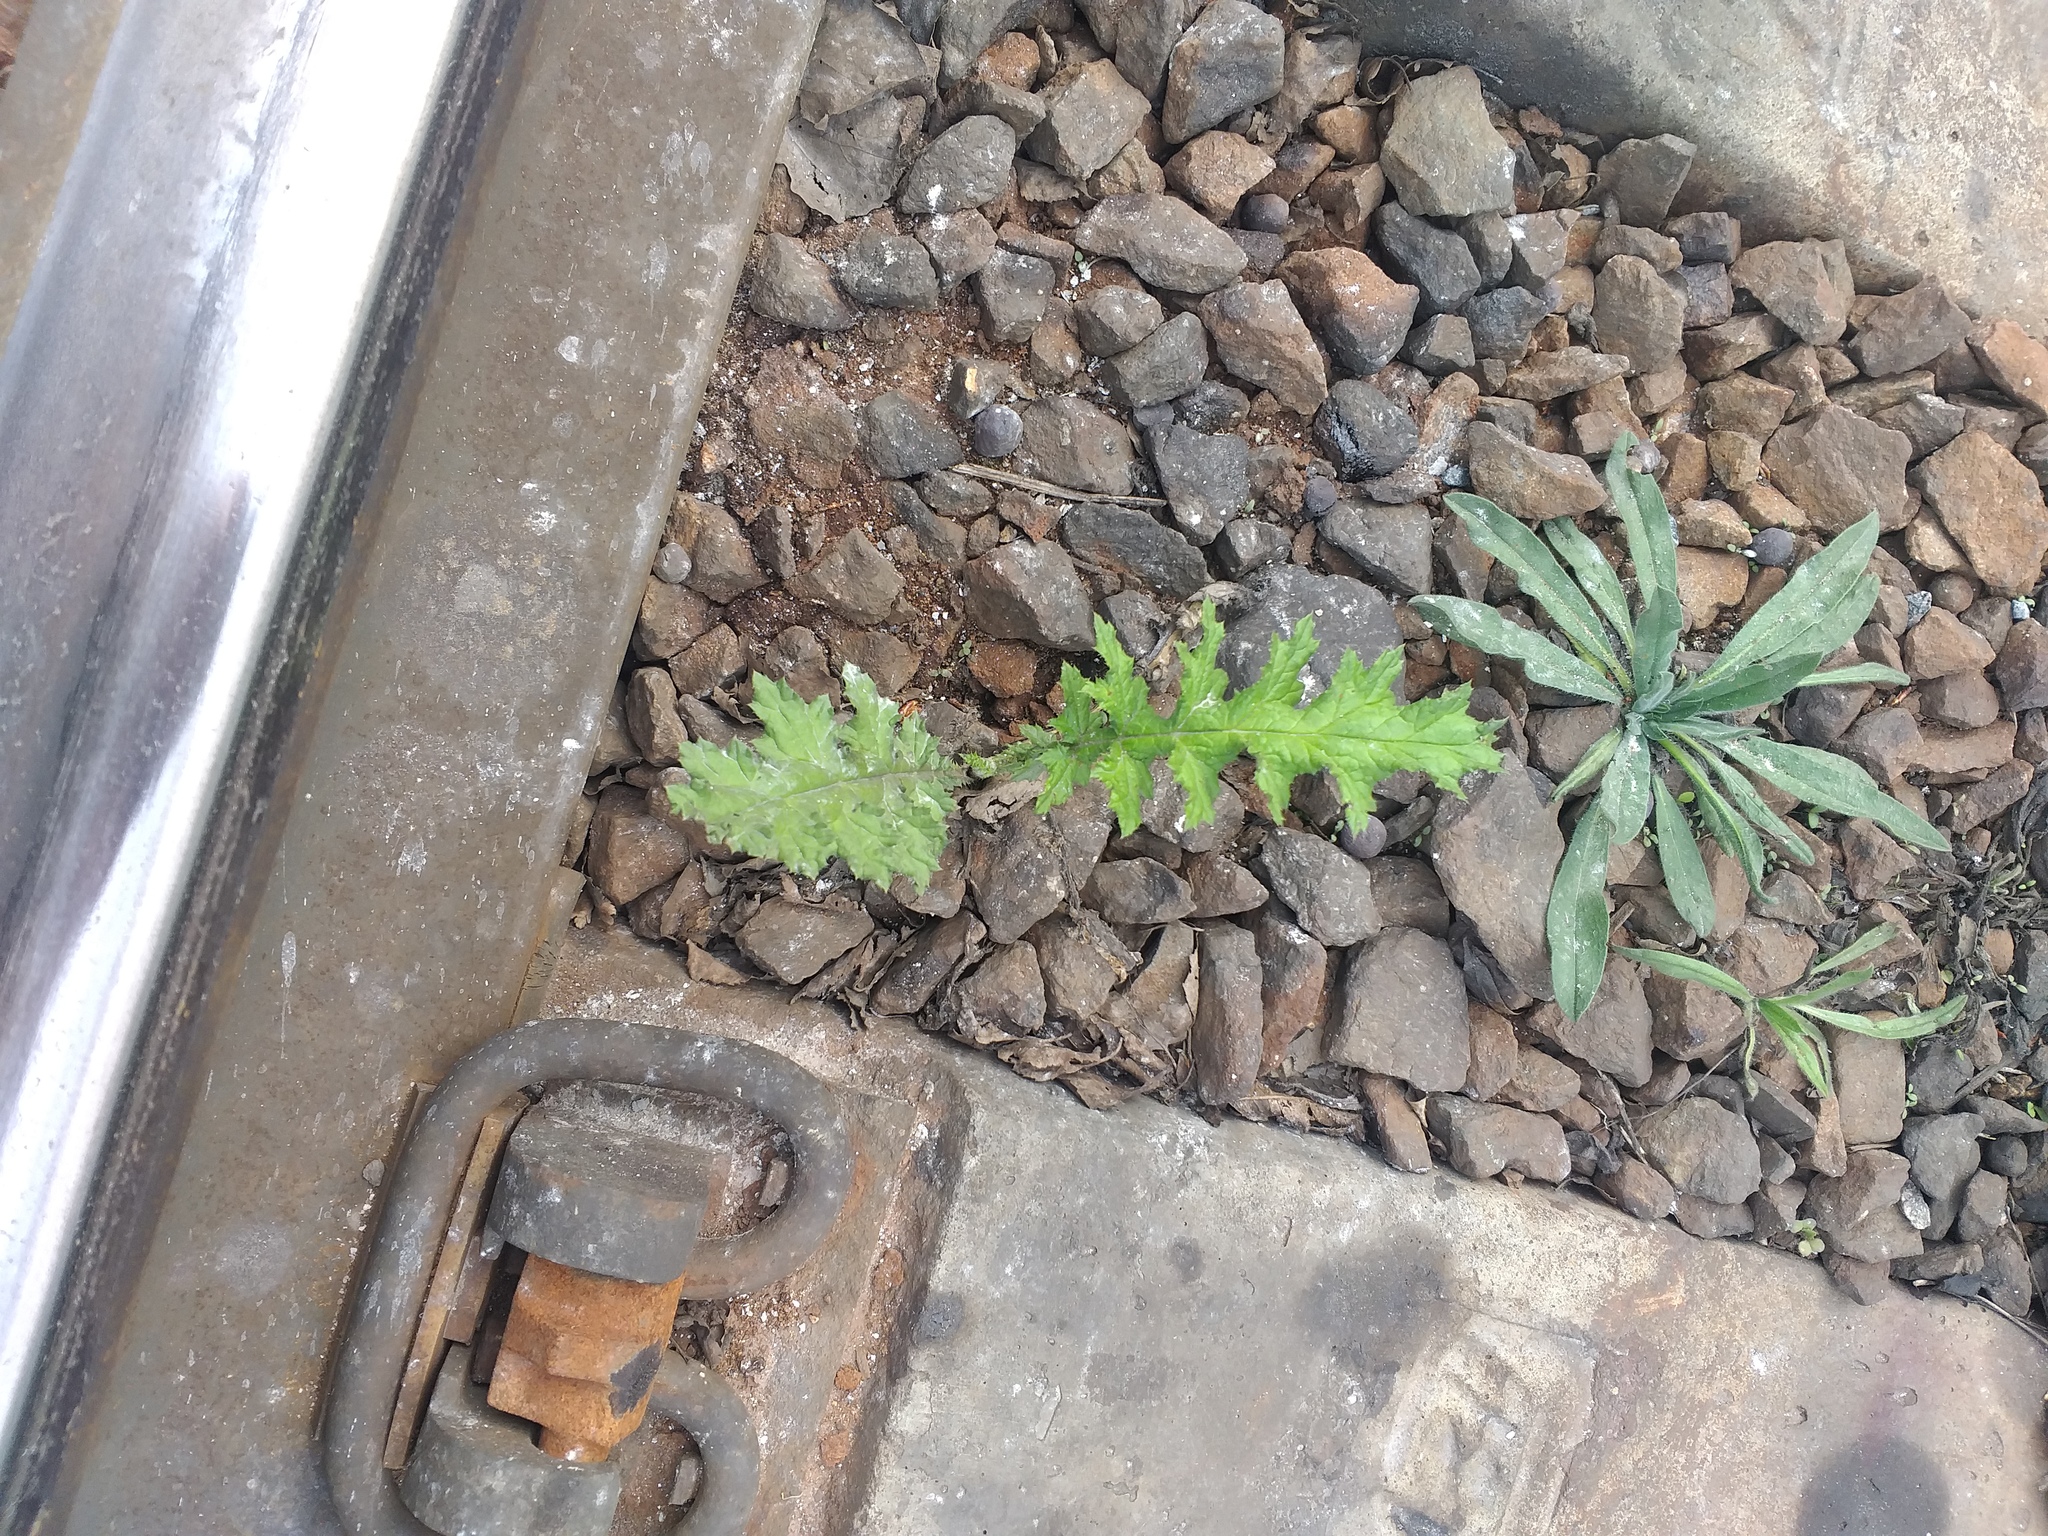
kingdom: Plantae
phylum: Tracheophyta
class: Magnoliopsida
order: Asterales
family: Asteraceae
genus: Echinops
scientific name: Echinops sphaerocephalus
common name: Glandular globe-thistle
